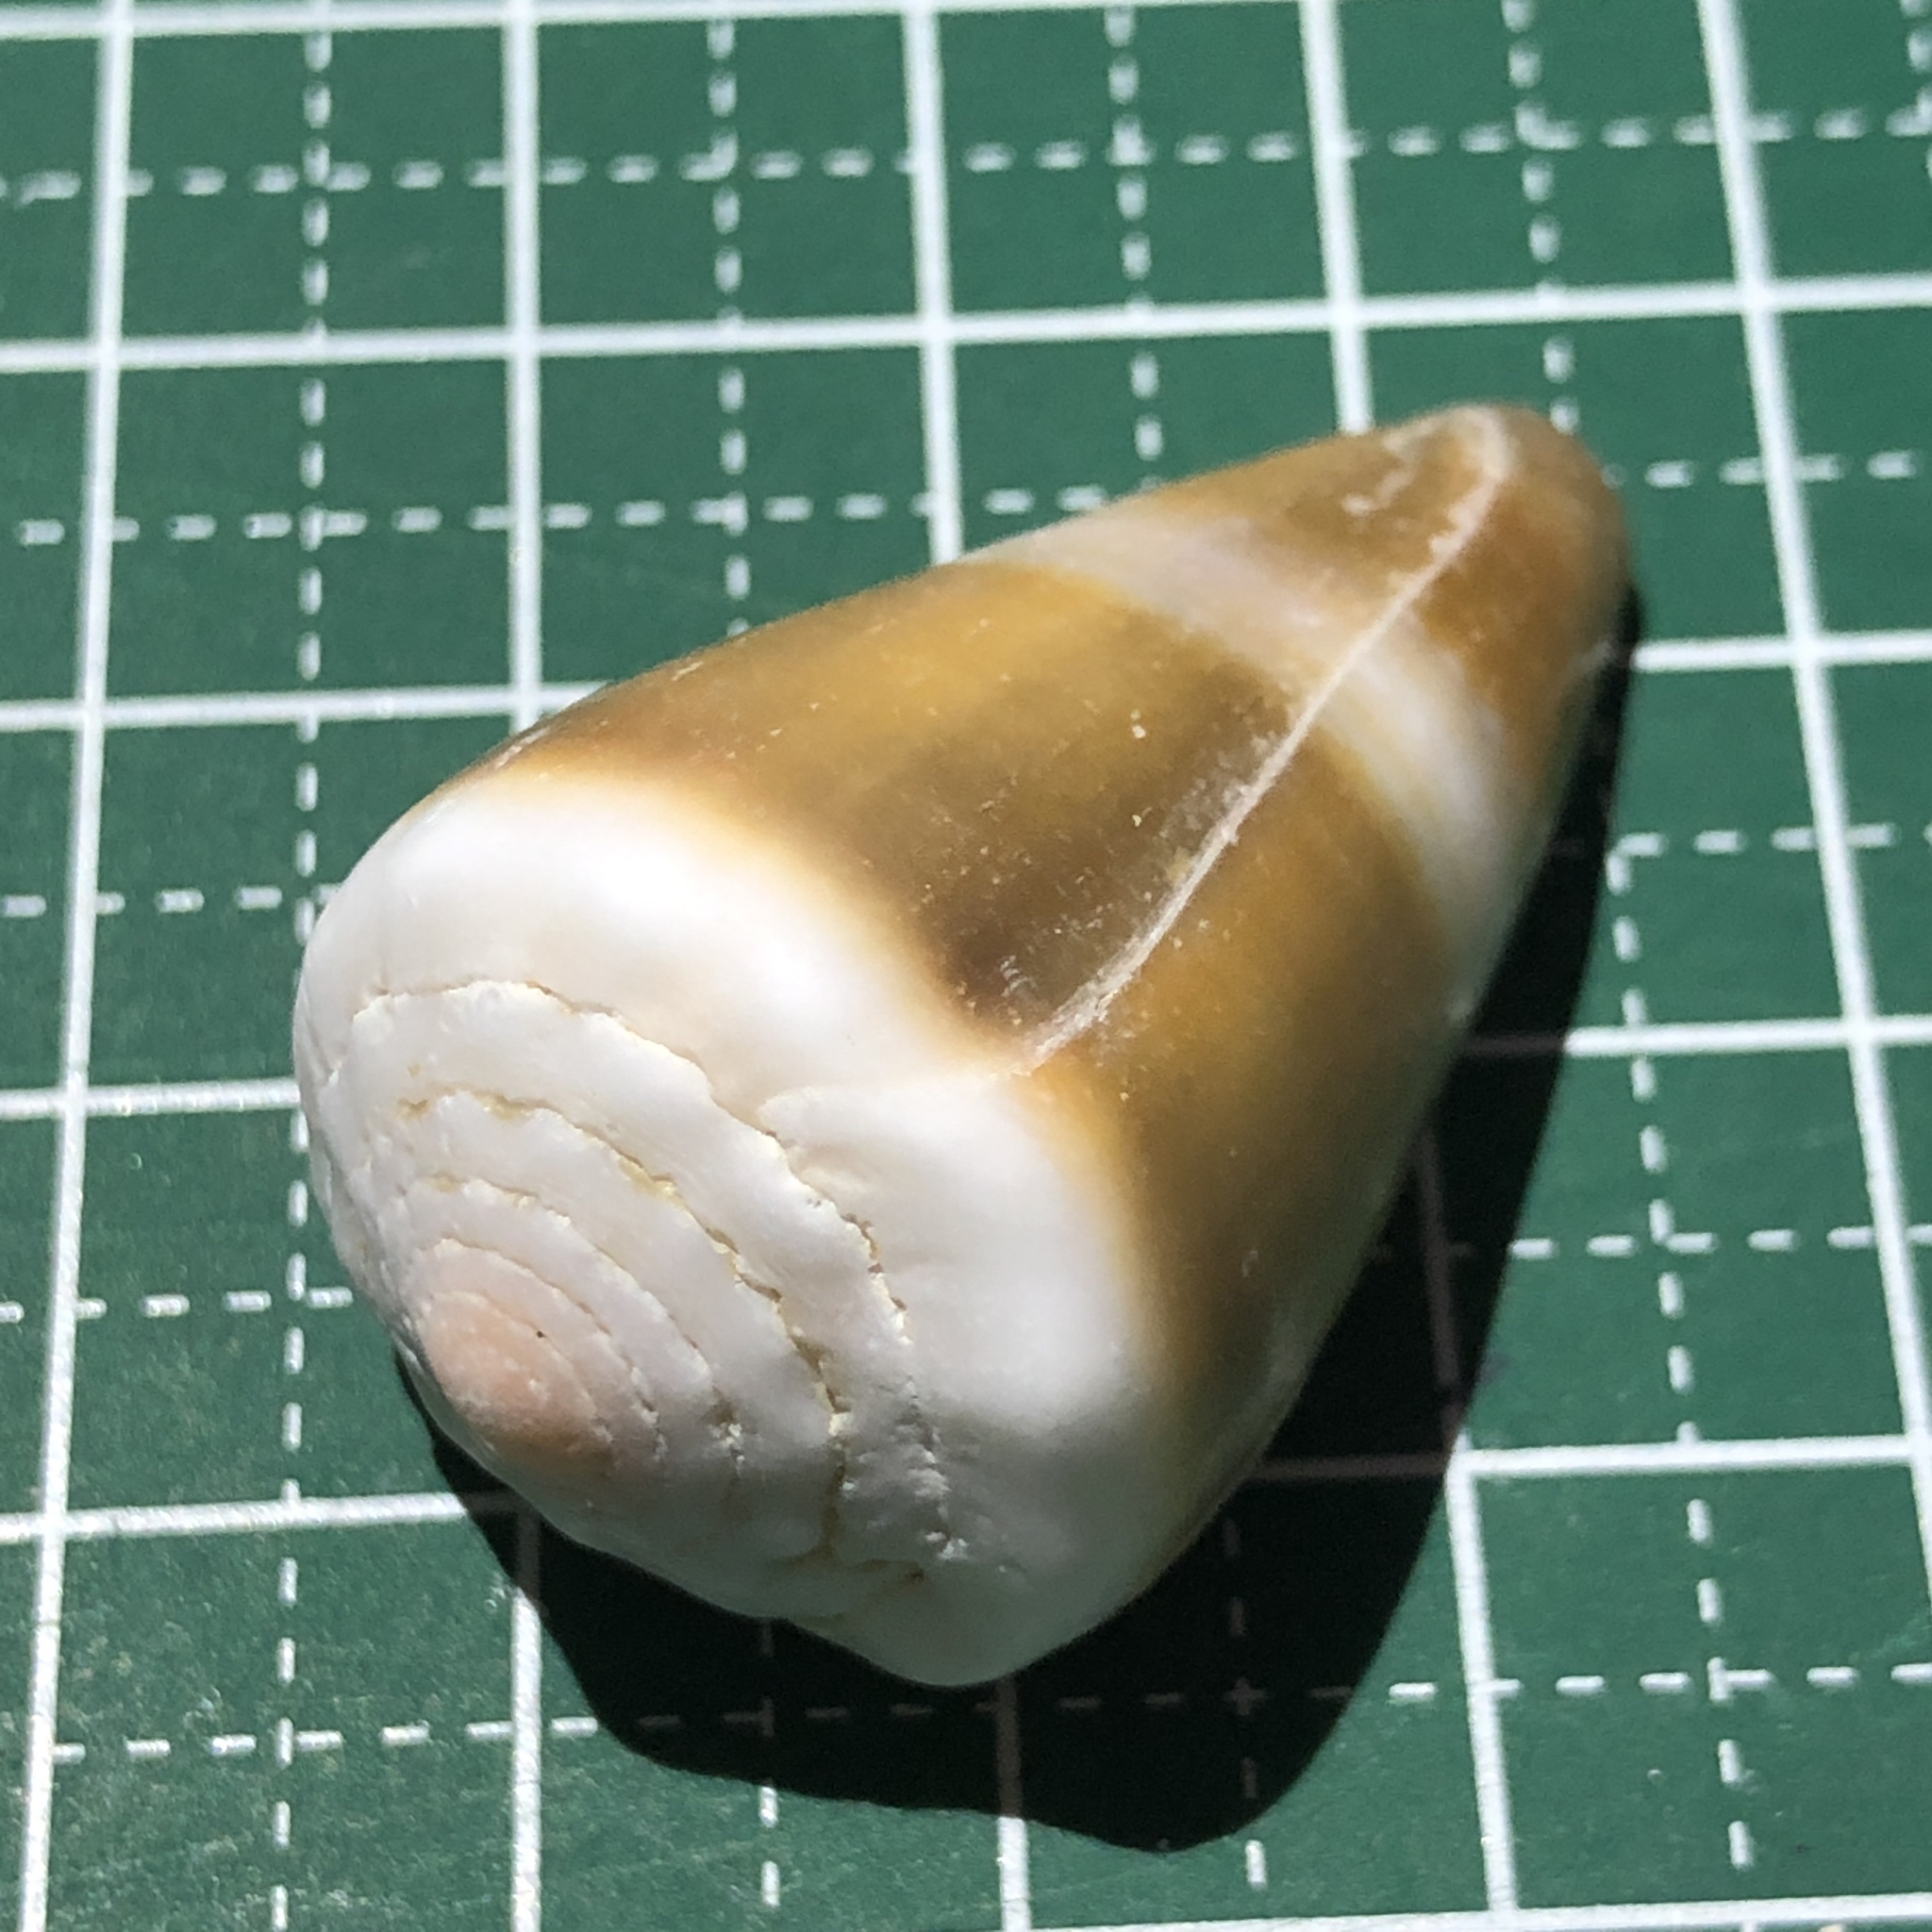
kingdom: Animalia
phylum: Mollusca
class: Gastropoda
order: Neogastropoda
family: Conidae
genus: Conus
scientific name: Conus lividus
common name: Livid cone
